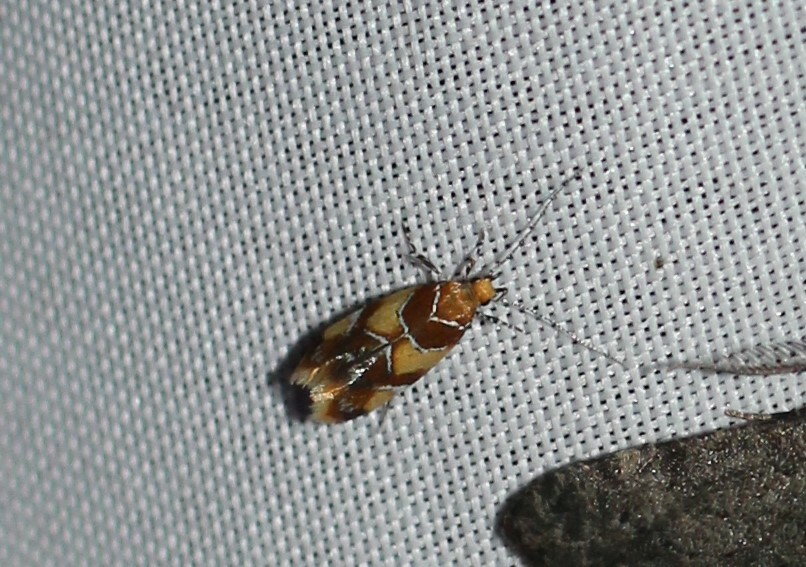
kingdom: Animalia
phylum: Arthropoda
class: Insecta
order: Lepidoptera
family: Oecophoridae
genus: Callima
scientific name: Callima argenticinctella
